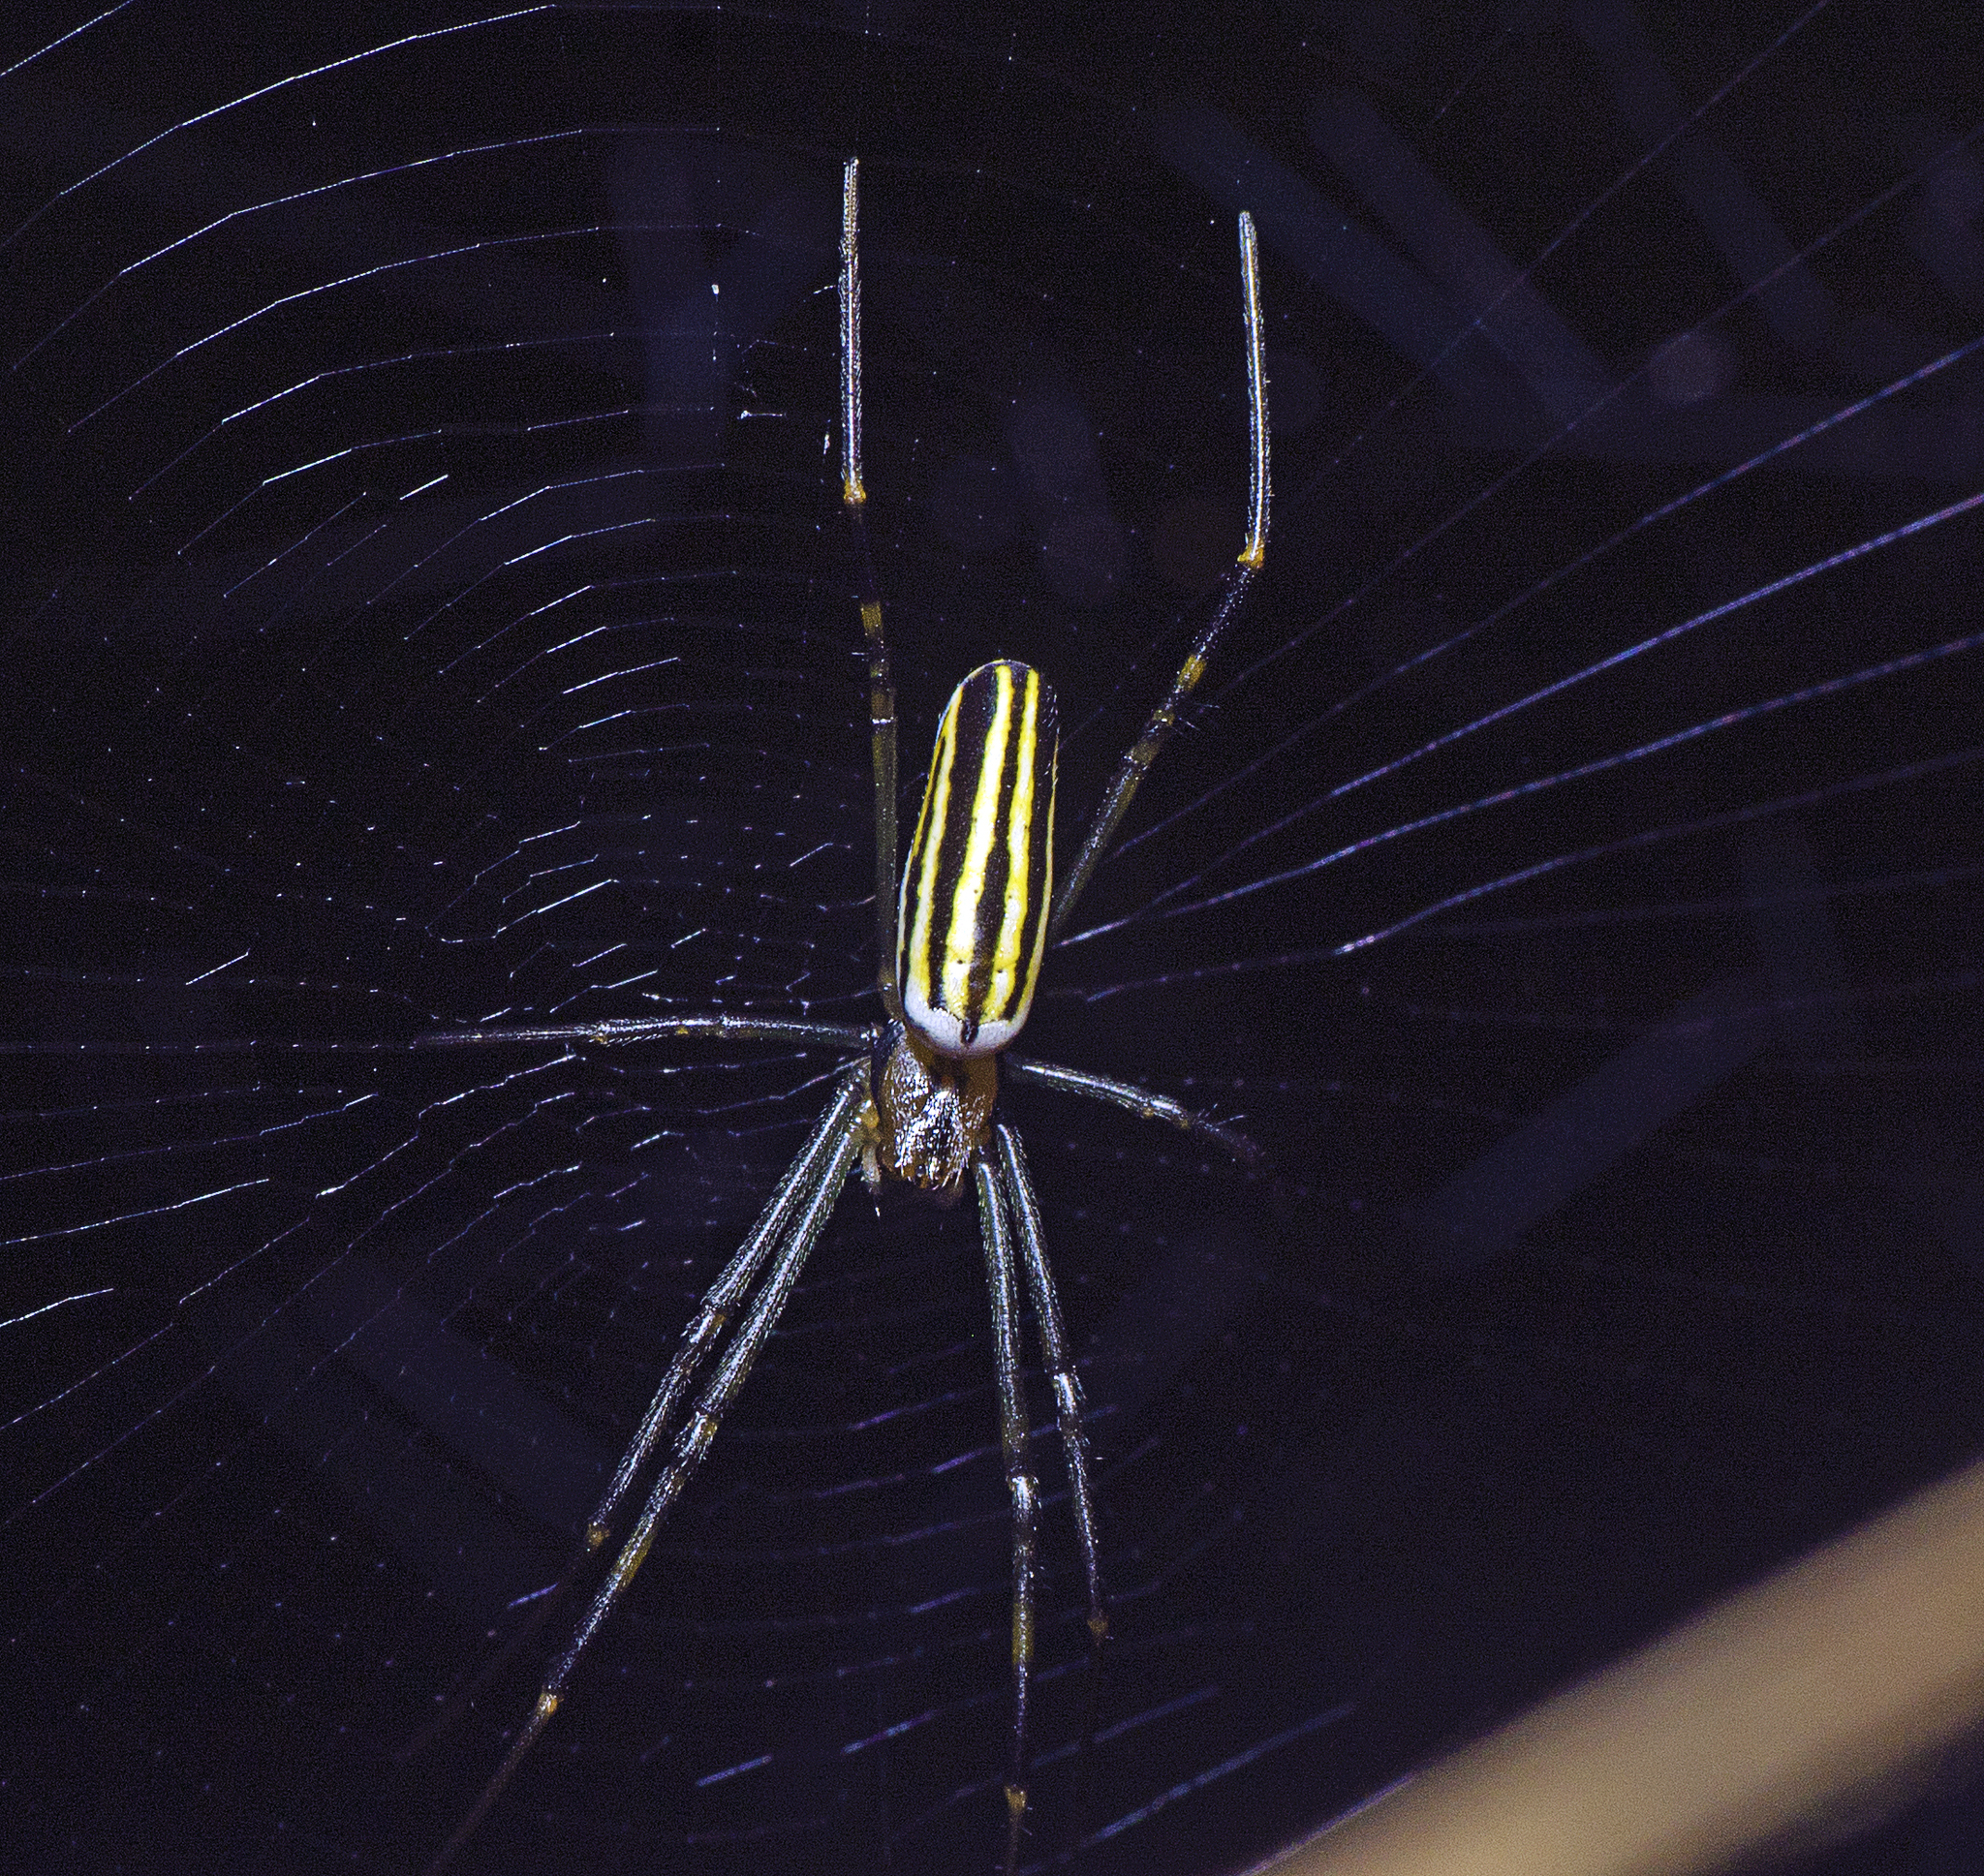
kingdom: Animalia
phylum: Arthropoda
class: Arachnida
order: Araneae
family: Araneidae
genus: Nephila
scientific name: Nephila pilipes
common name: Giant golden orb weaver
